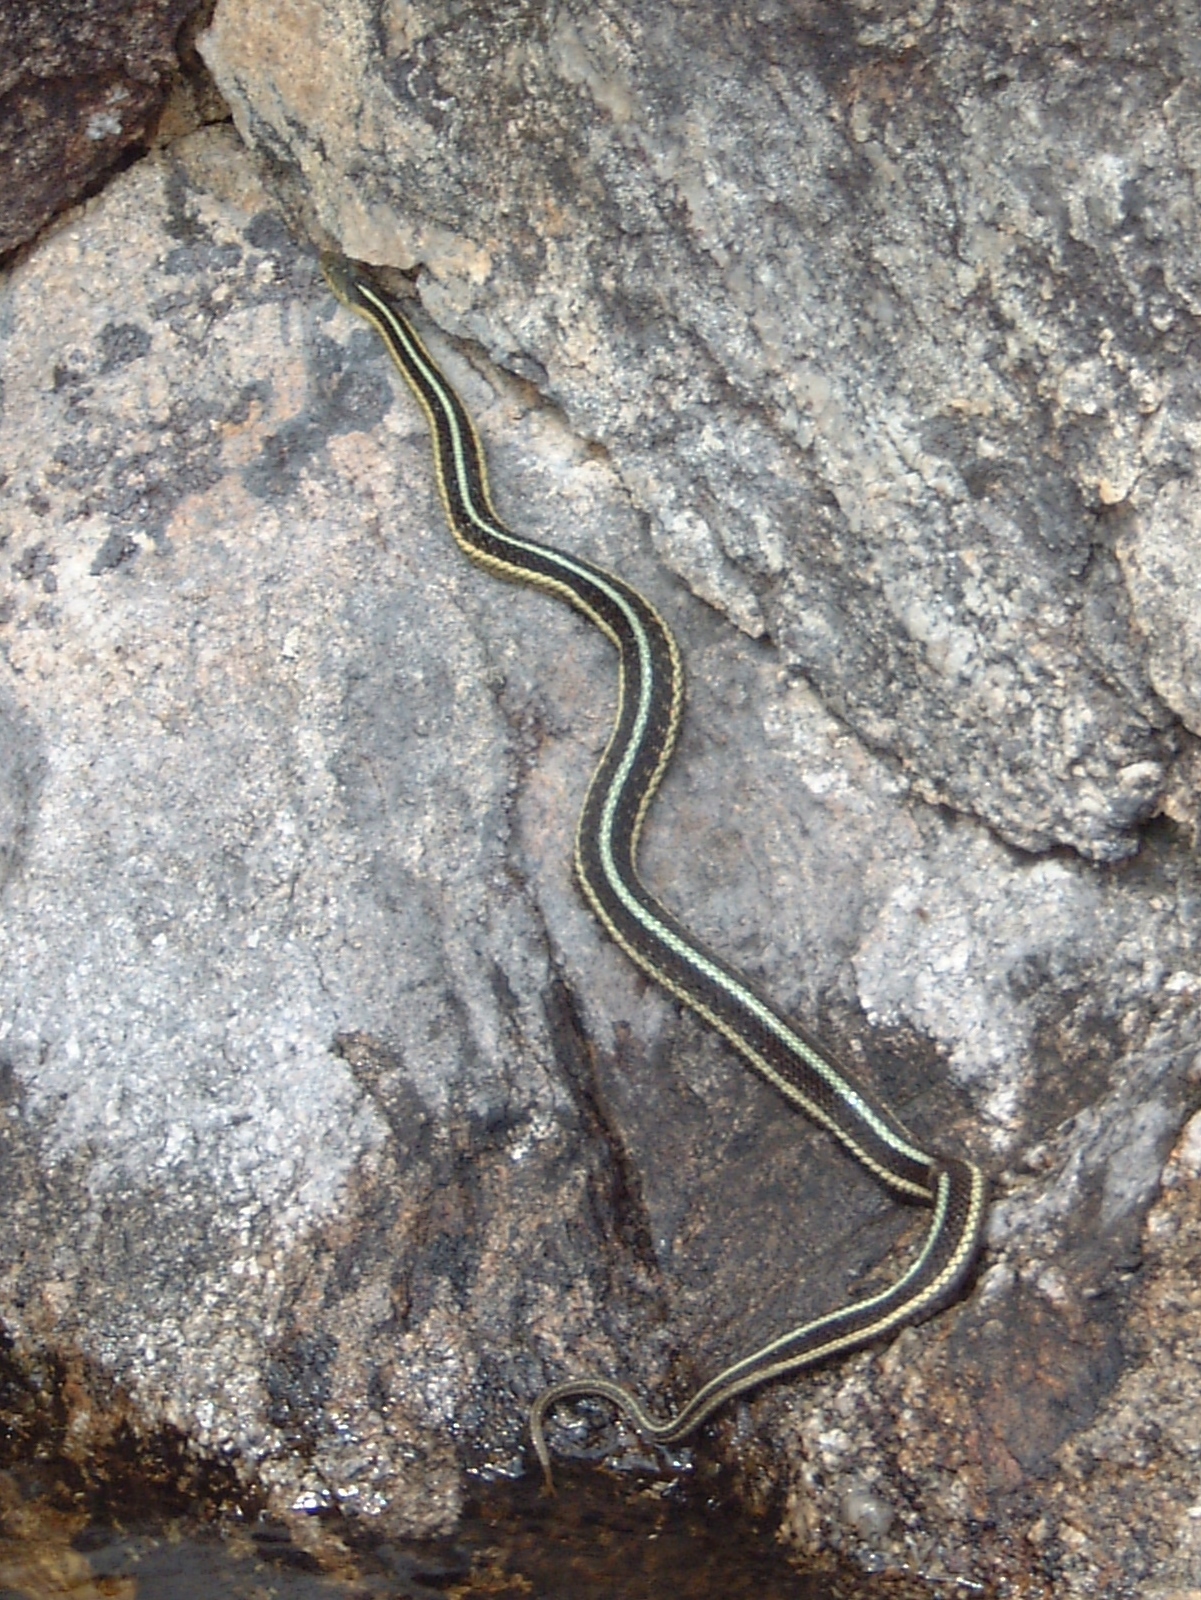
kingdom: Animalia
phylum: Chordata
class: Squamata
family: Colubridae
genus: Thamnophis
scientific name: Thamnophis sirtalis
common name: Common garter snake
